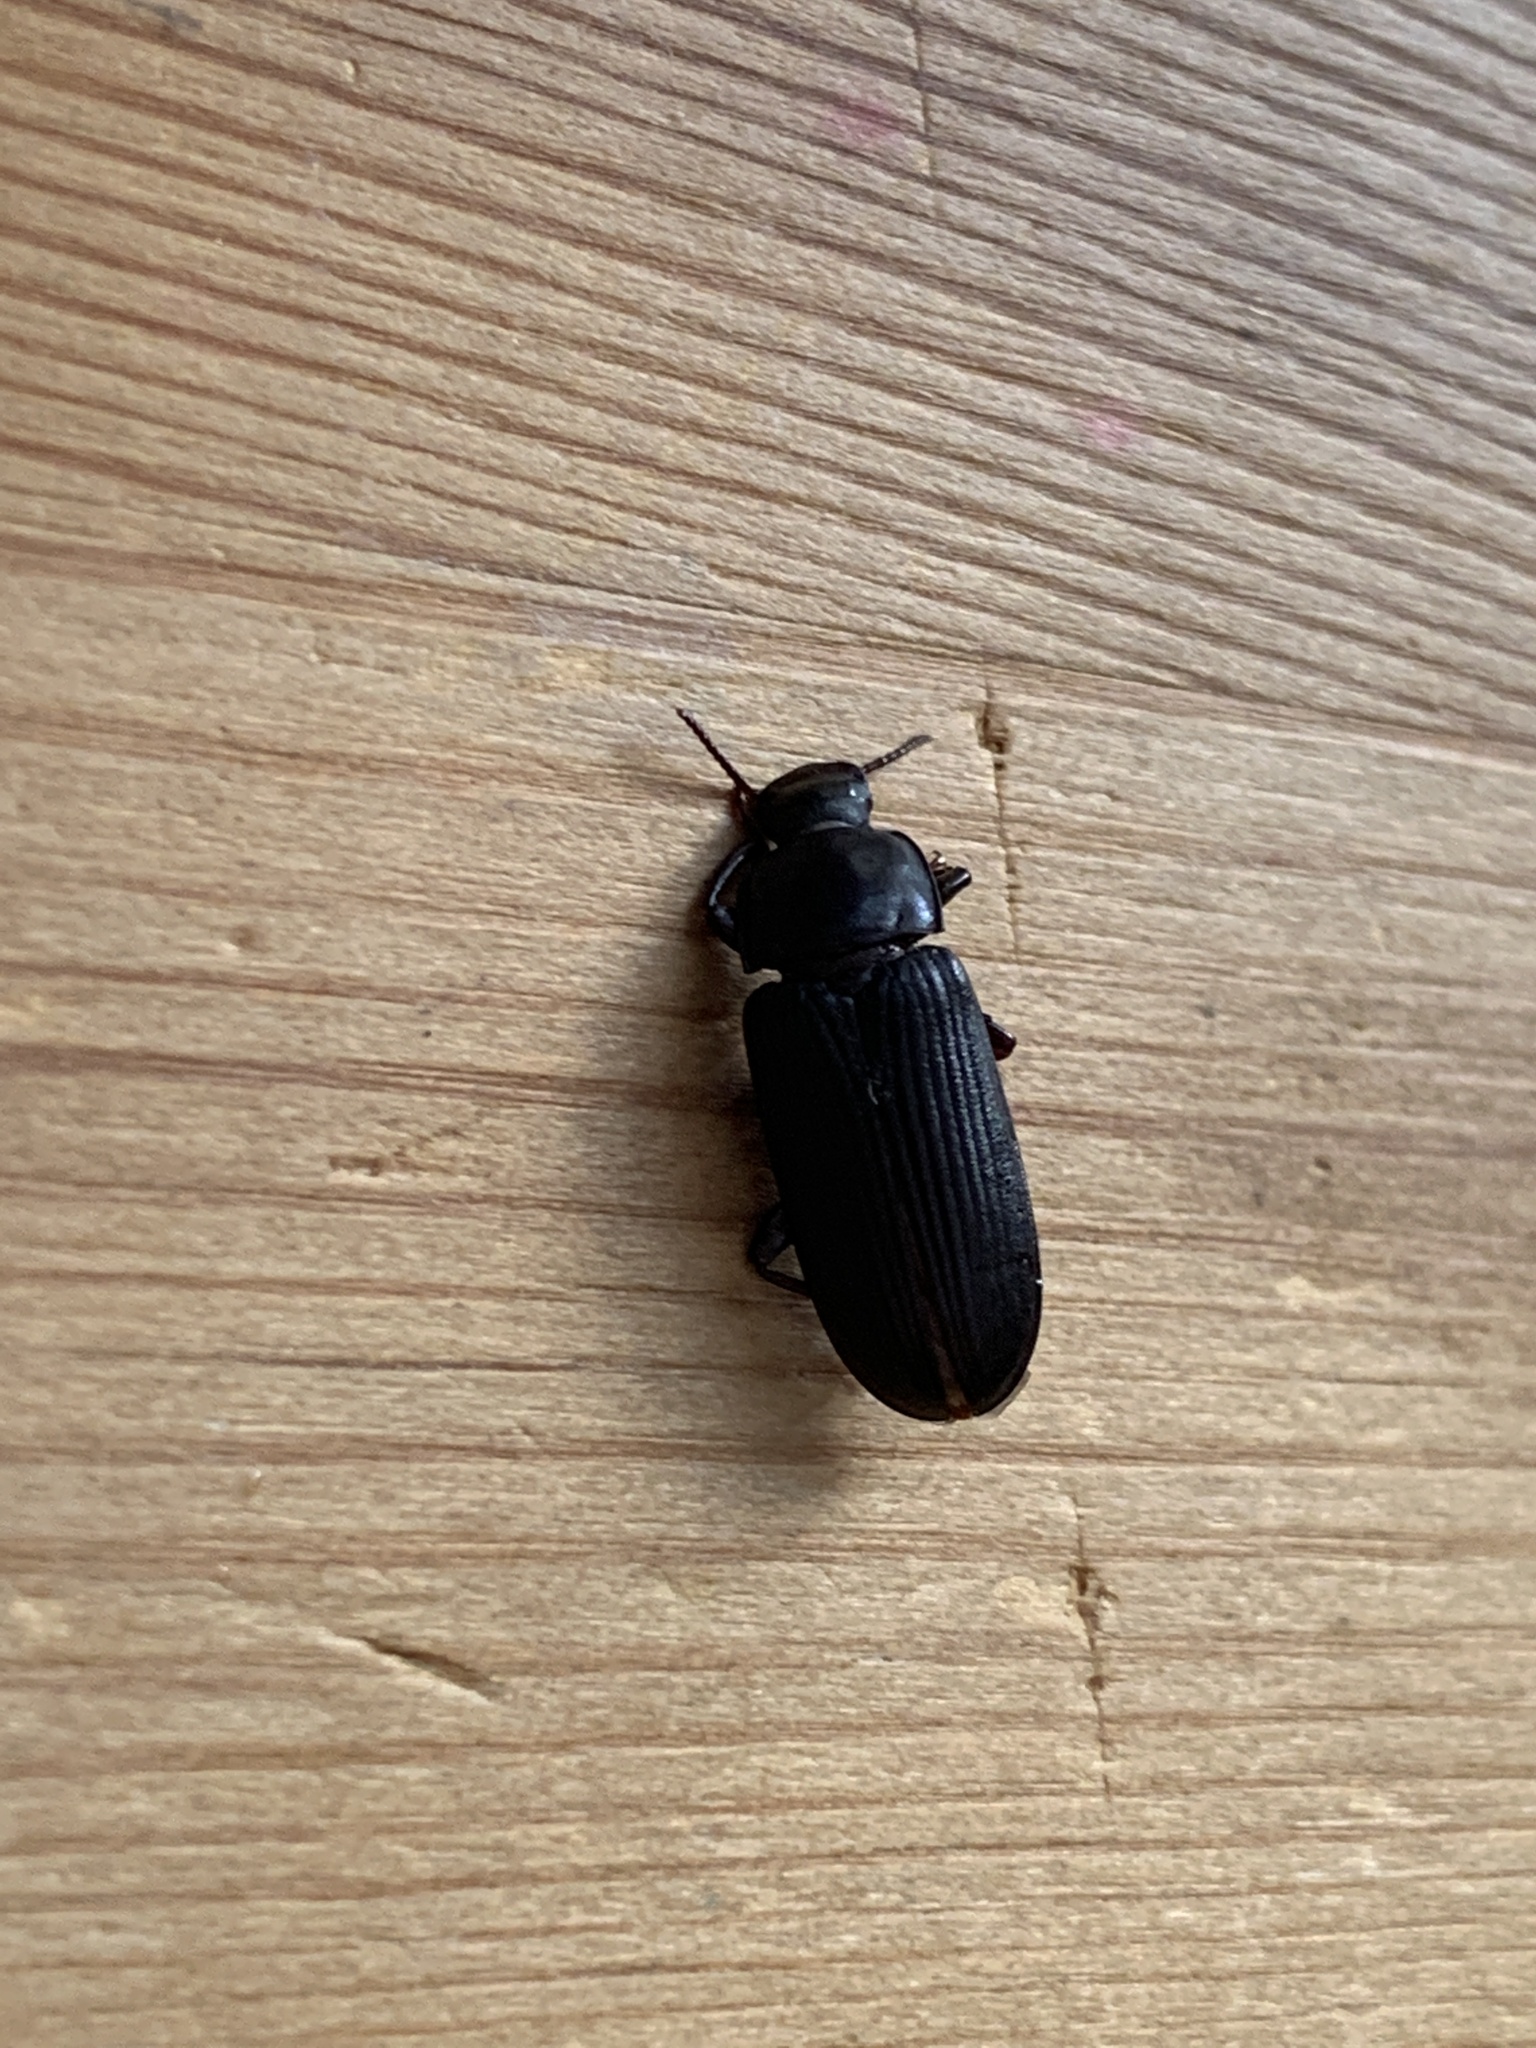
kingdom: Animalia
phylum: Arthropoda
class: Insecta
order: Coleoptera
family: Tenebrionidae
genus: Tenebrio
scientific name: Tenebrio molitor
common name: Hardback beetle
